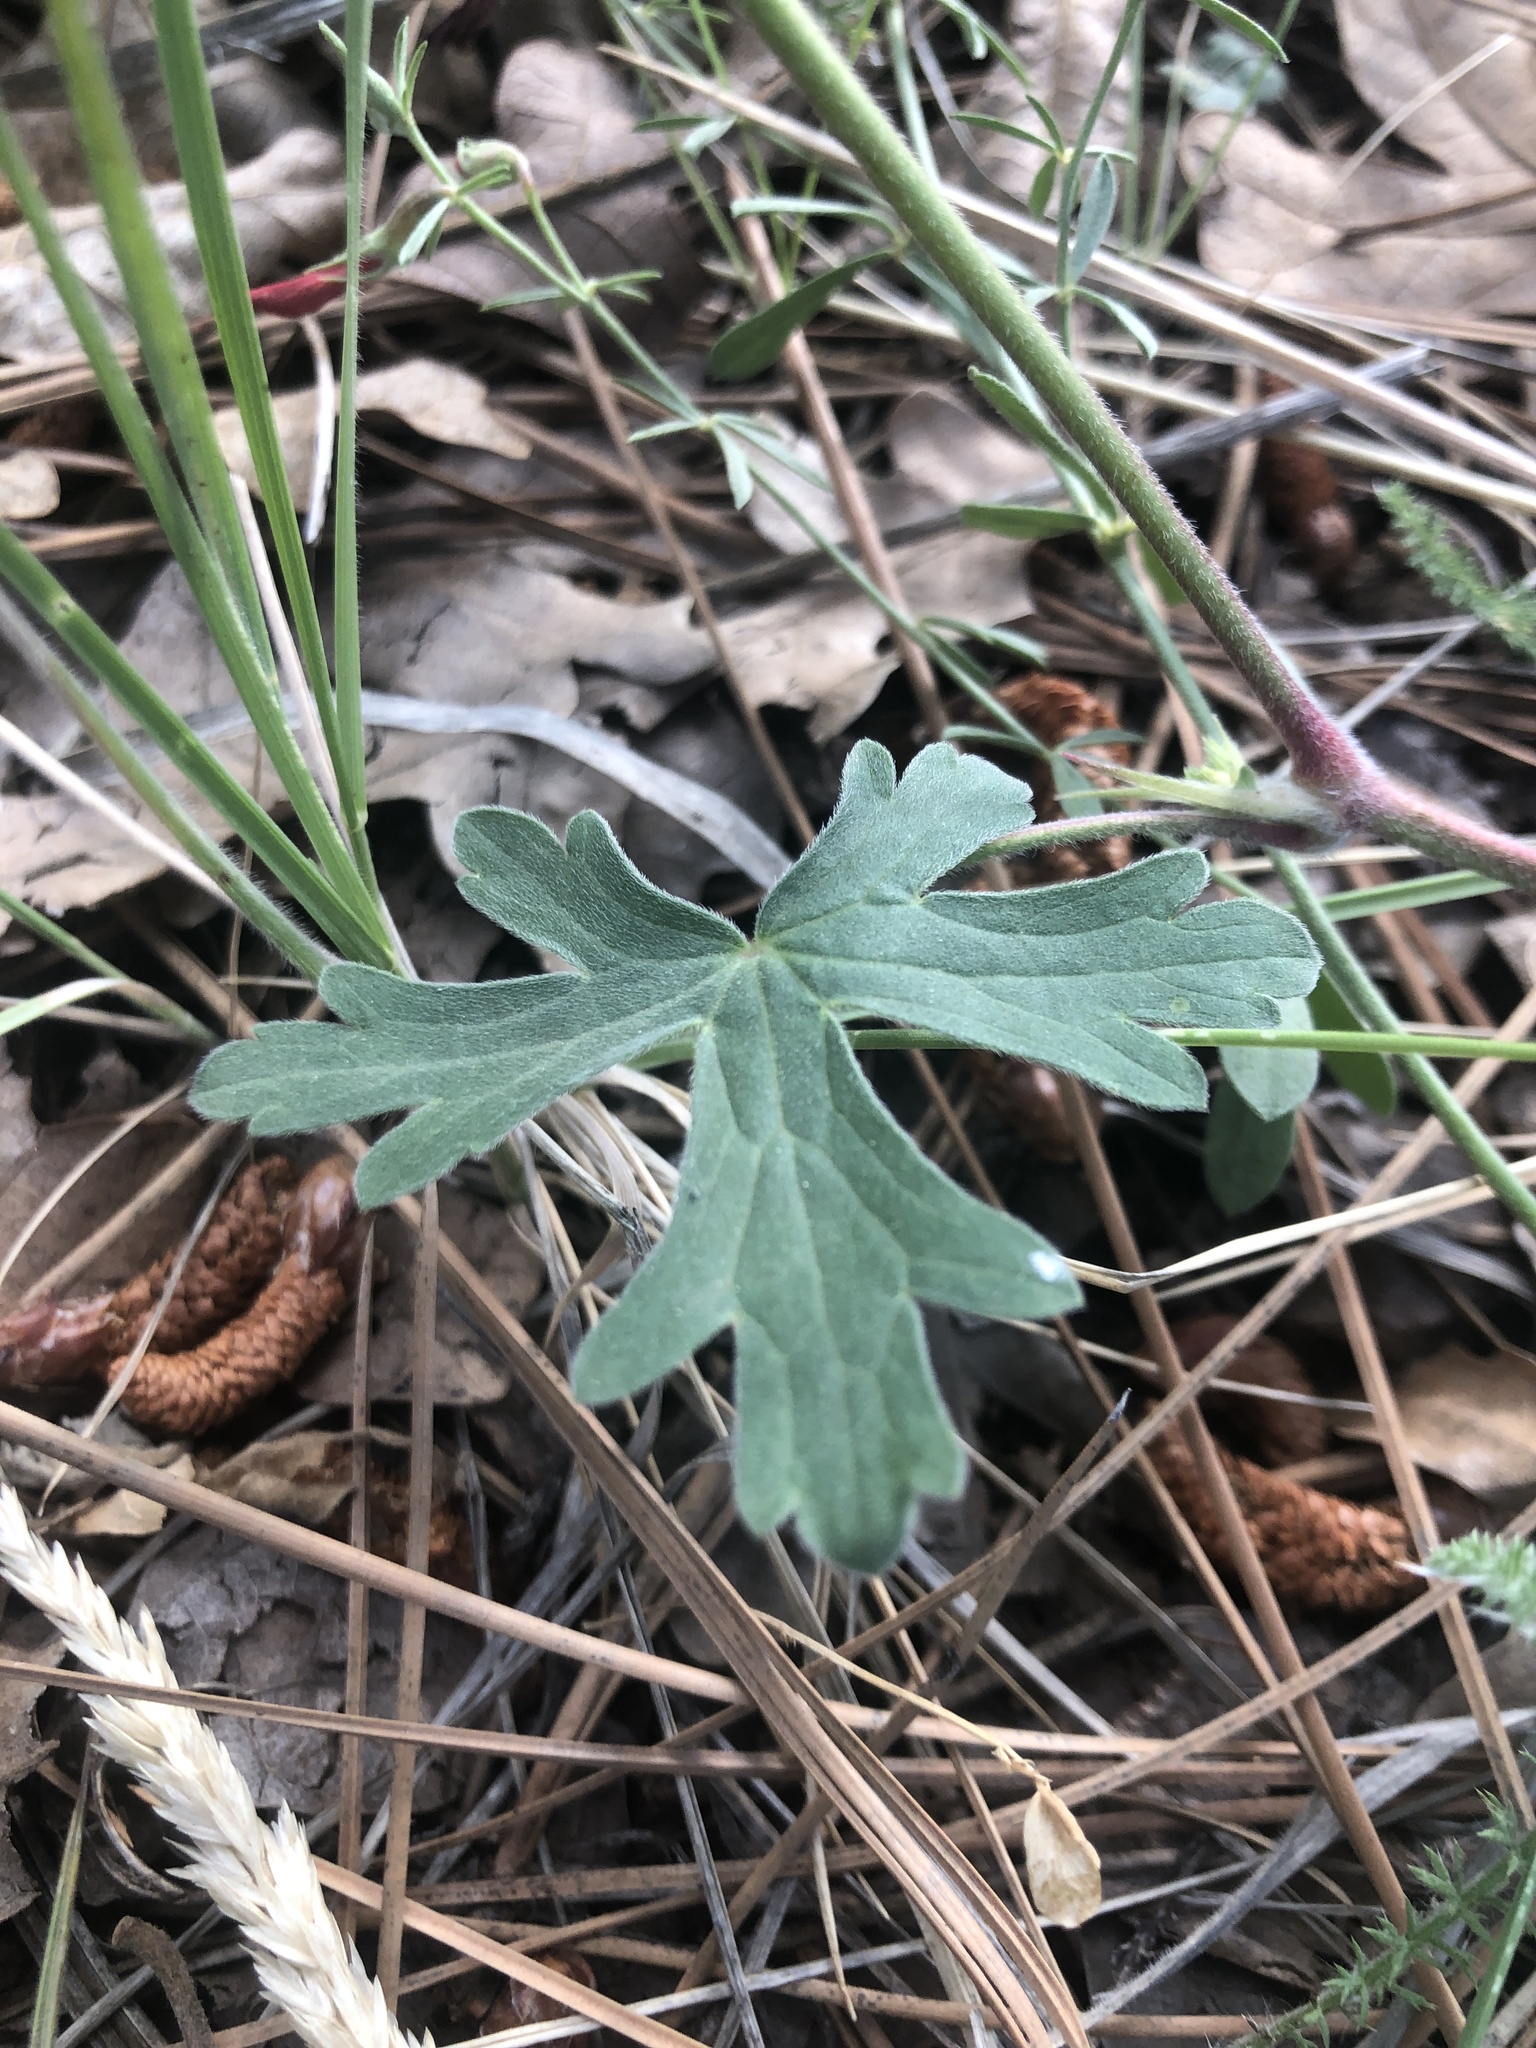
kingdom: Plantae
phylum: Tracheophyta
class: Magnoliopsida
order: Geraniales
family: Geraniaceae
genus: Geranium
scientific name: Geranium caespitosum
